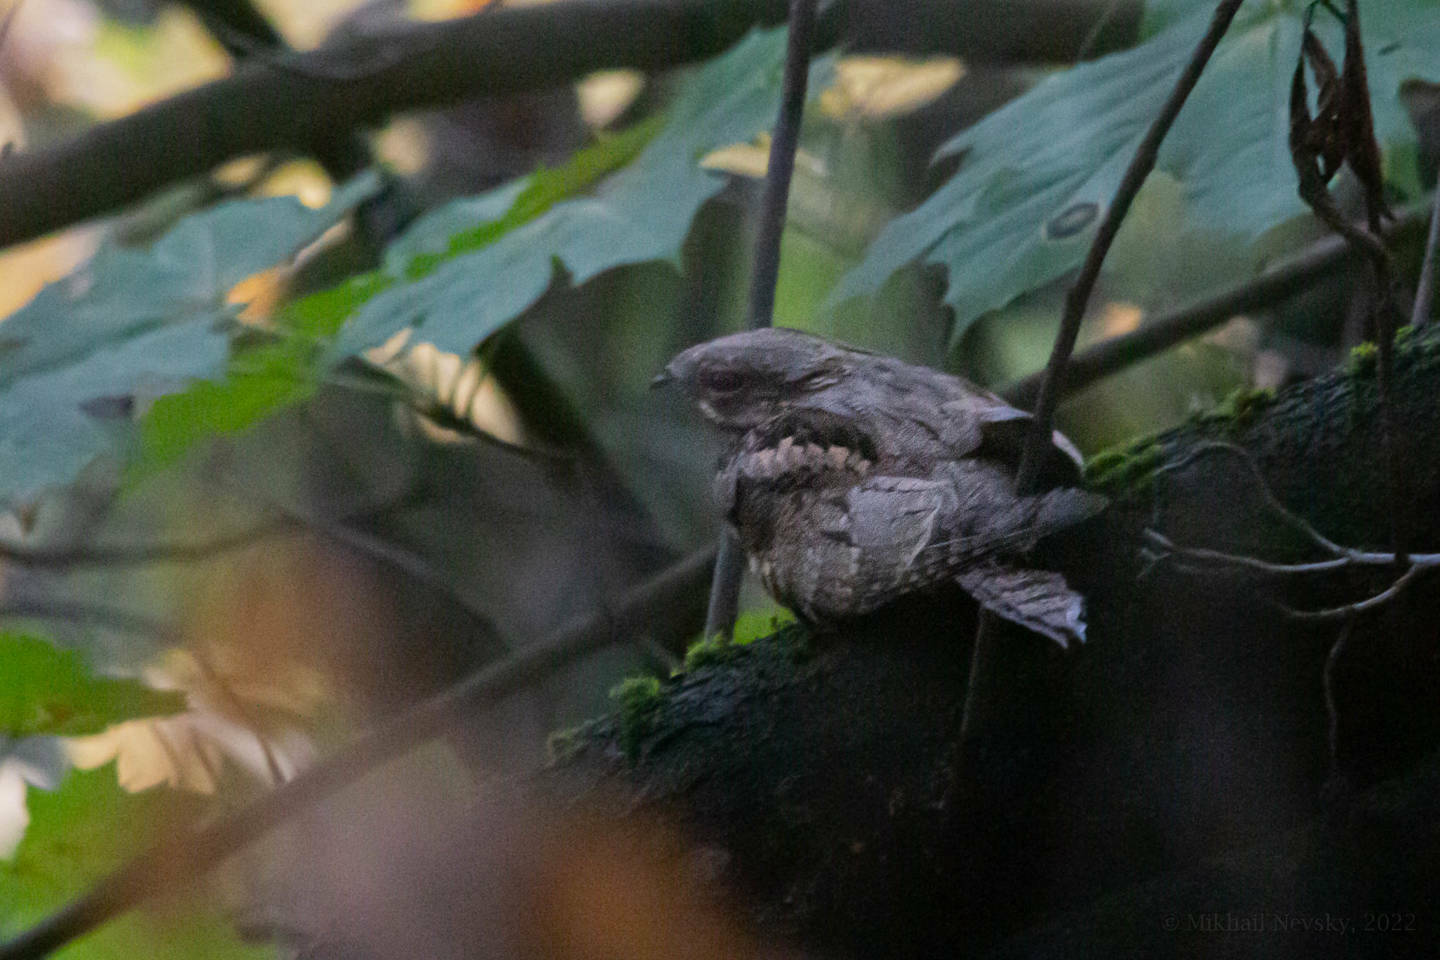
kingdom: Animalia
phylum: Chordata
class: Aves
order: Caprimulgiformes
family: Caprimulgidae
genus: Caprimulgus
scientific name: Caprimulgus europaeus
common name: European nightjar
